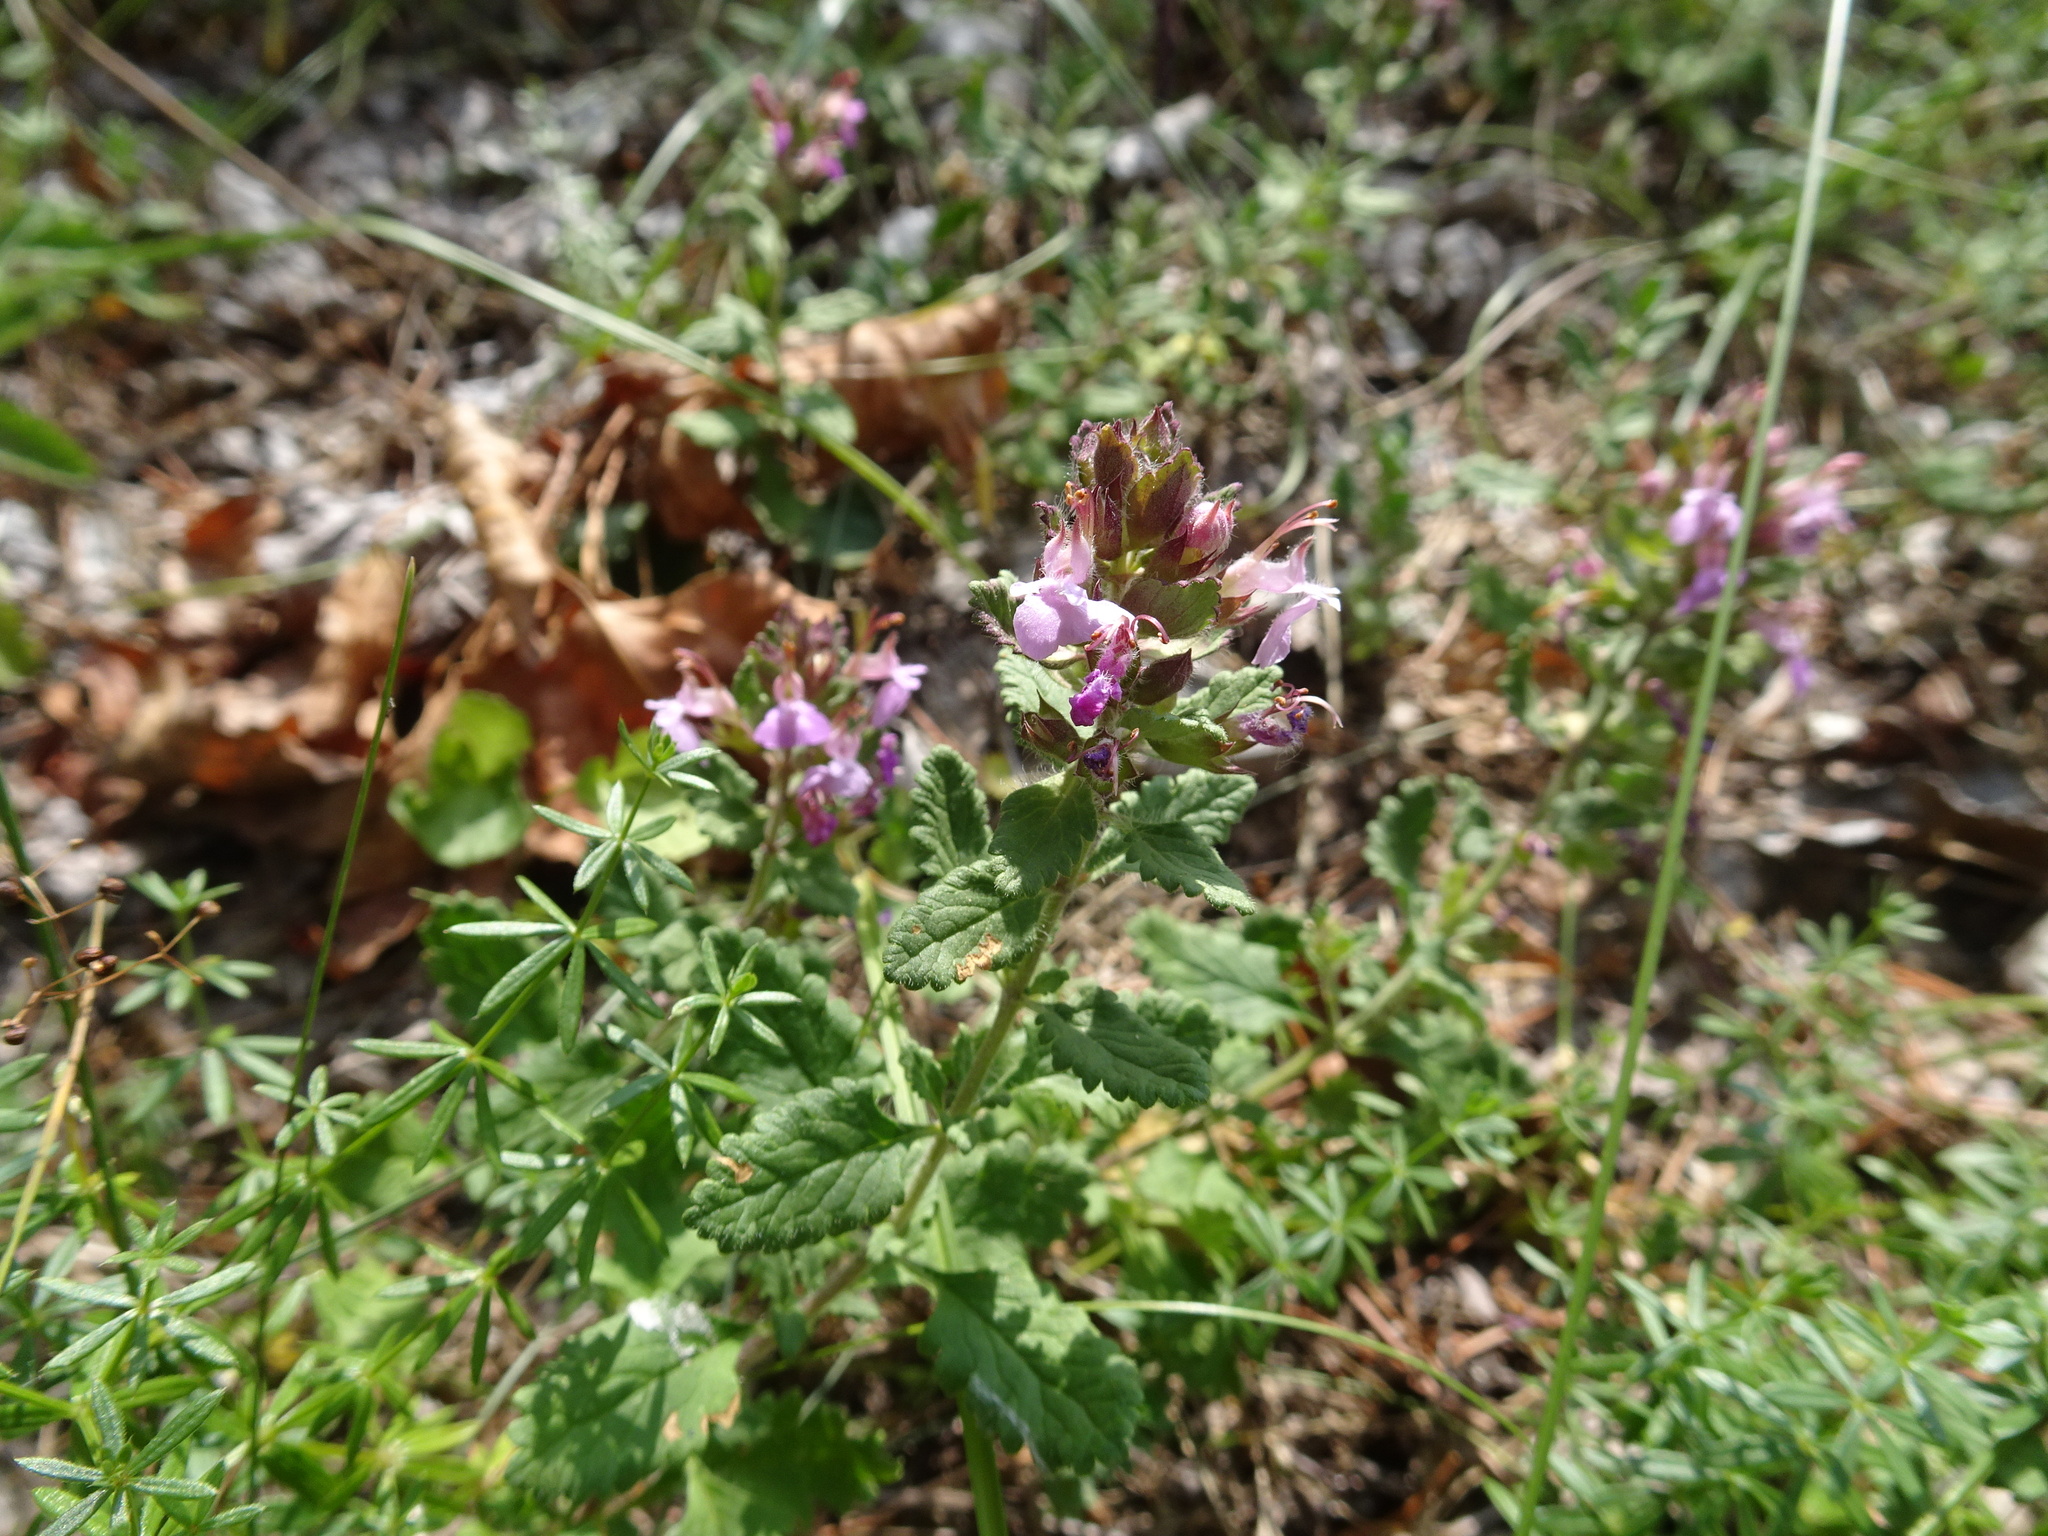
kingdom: Plantae
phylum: Tracheophyta
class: Magnoliopsida
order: Lamiales
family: Lamiaceae
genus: Teucrium
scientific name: Teucrium chamaedrys
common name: Wall germander
